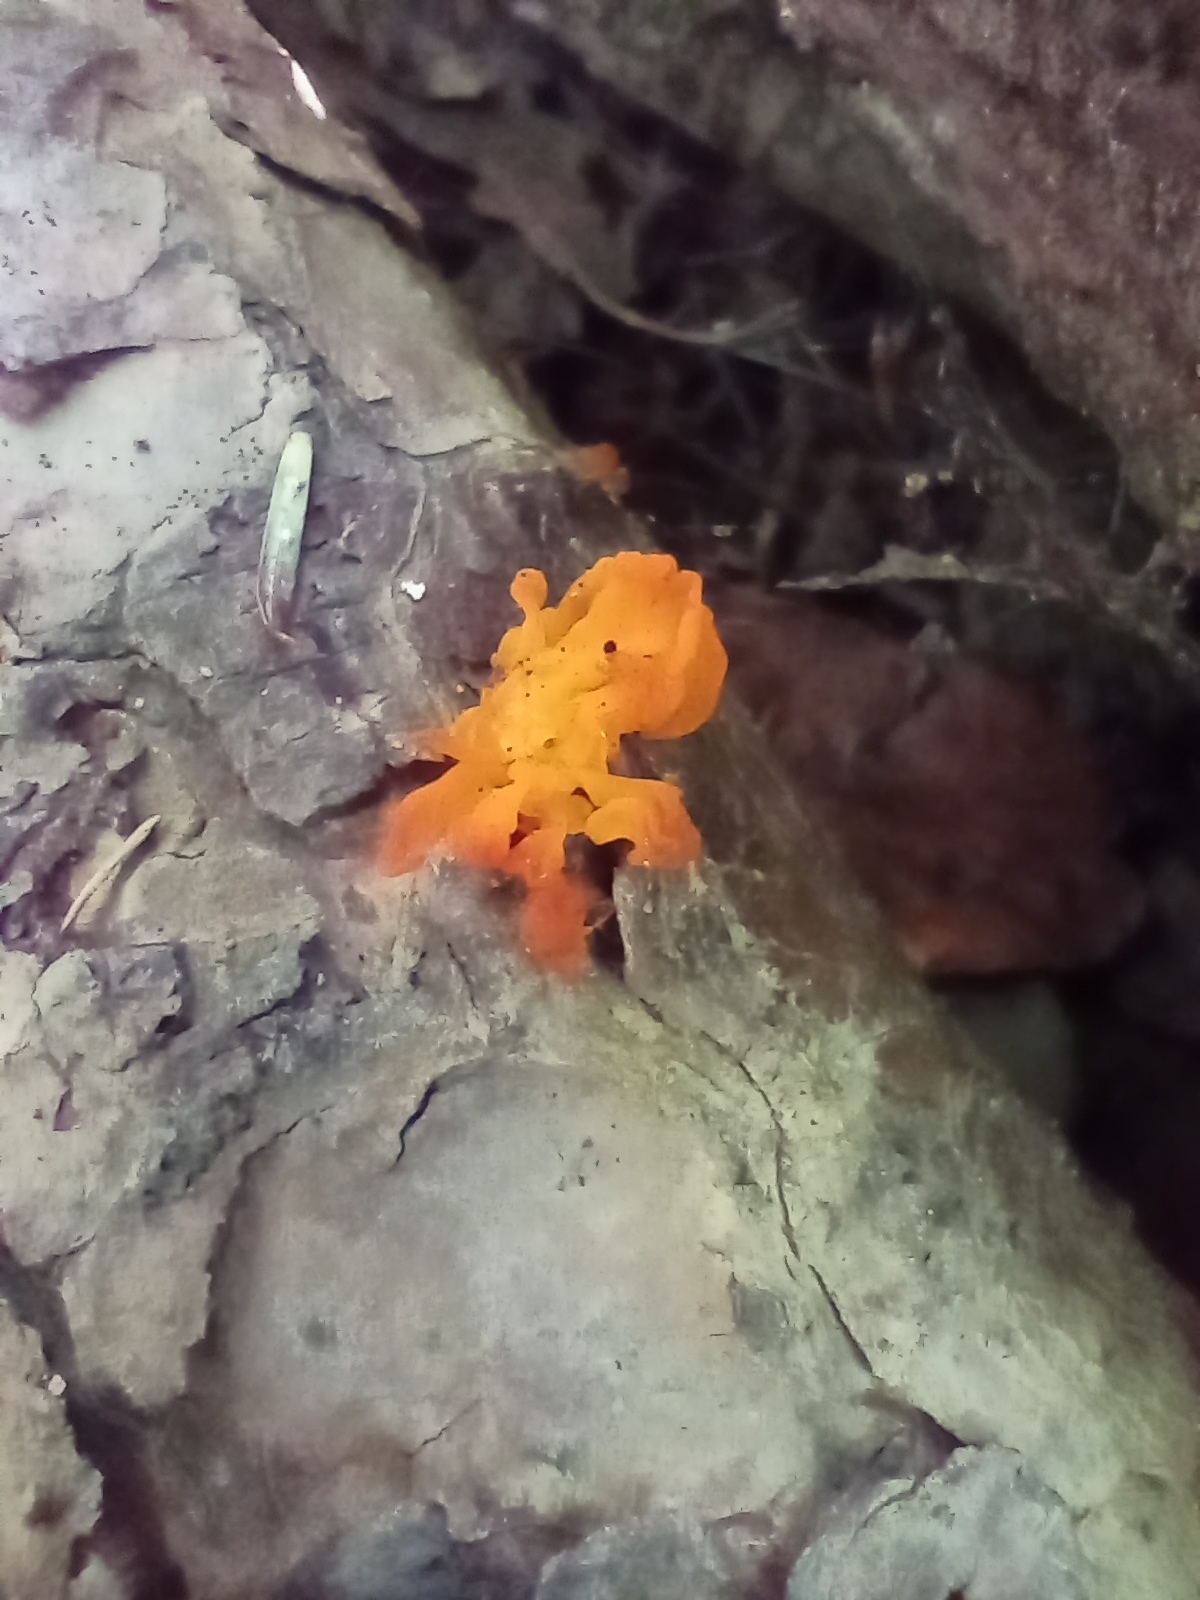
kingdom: Fungi
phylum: Basidiomycota
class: Tremellomycetes
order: Tremellales
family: Tremellaceae
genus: Tremella
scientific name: Tremella mesenterica
